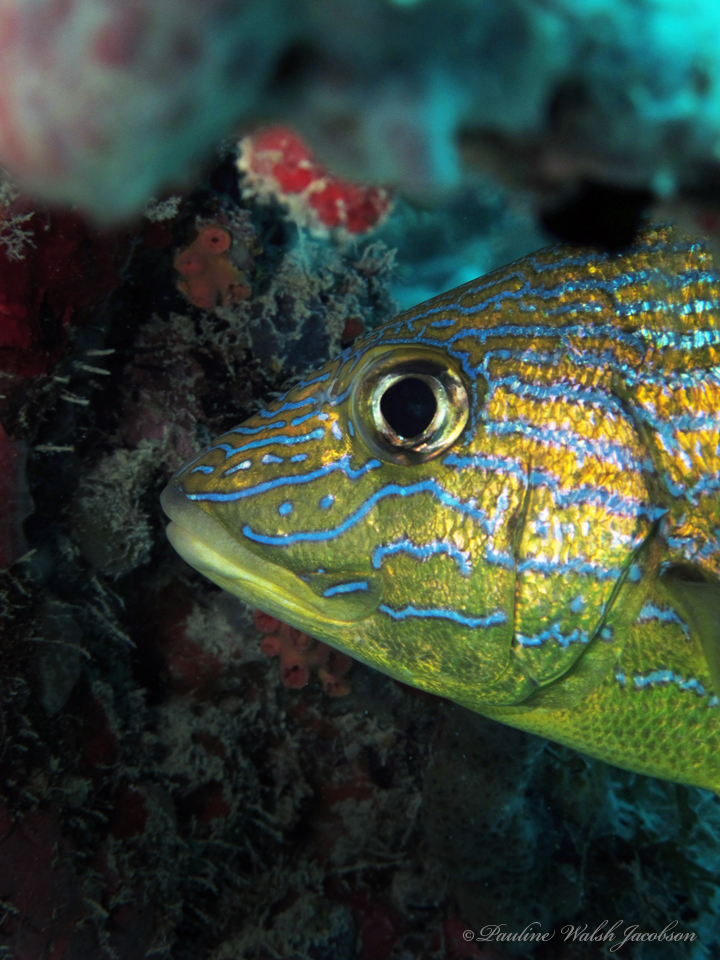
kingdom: Animalia
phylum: Chordata
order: Perciformes
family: Haemulidae
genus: Haemulon
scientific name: Haemulon sciurus
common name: Bluestriped grunt
